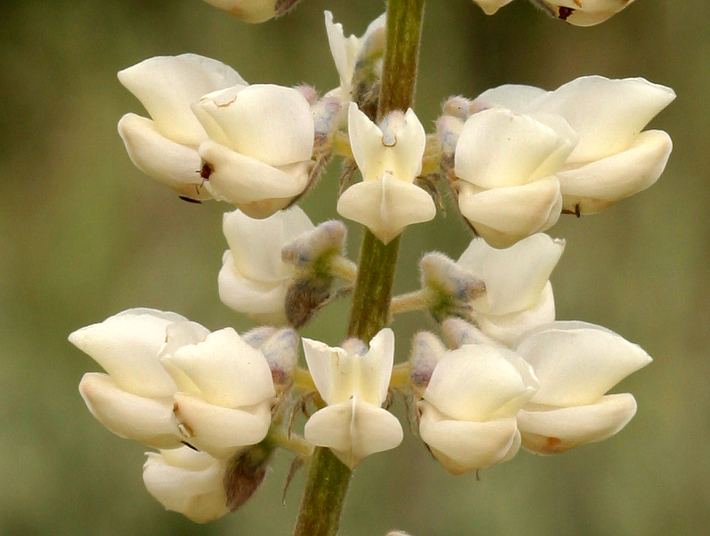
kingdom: Plantae
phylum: Tracheophyta
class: Magnoliopsida
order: Fabales
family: Fabaceae
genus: Lupinus
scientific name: Lupinus arbustus
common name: Montana lupine
